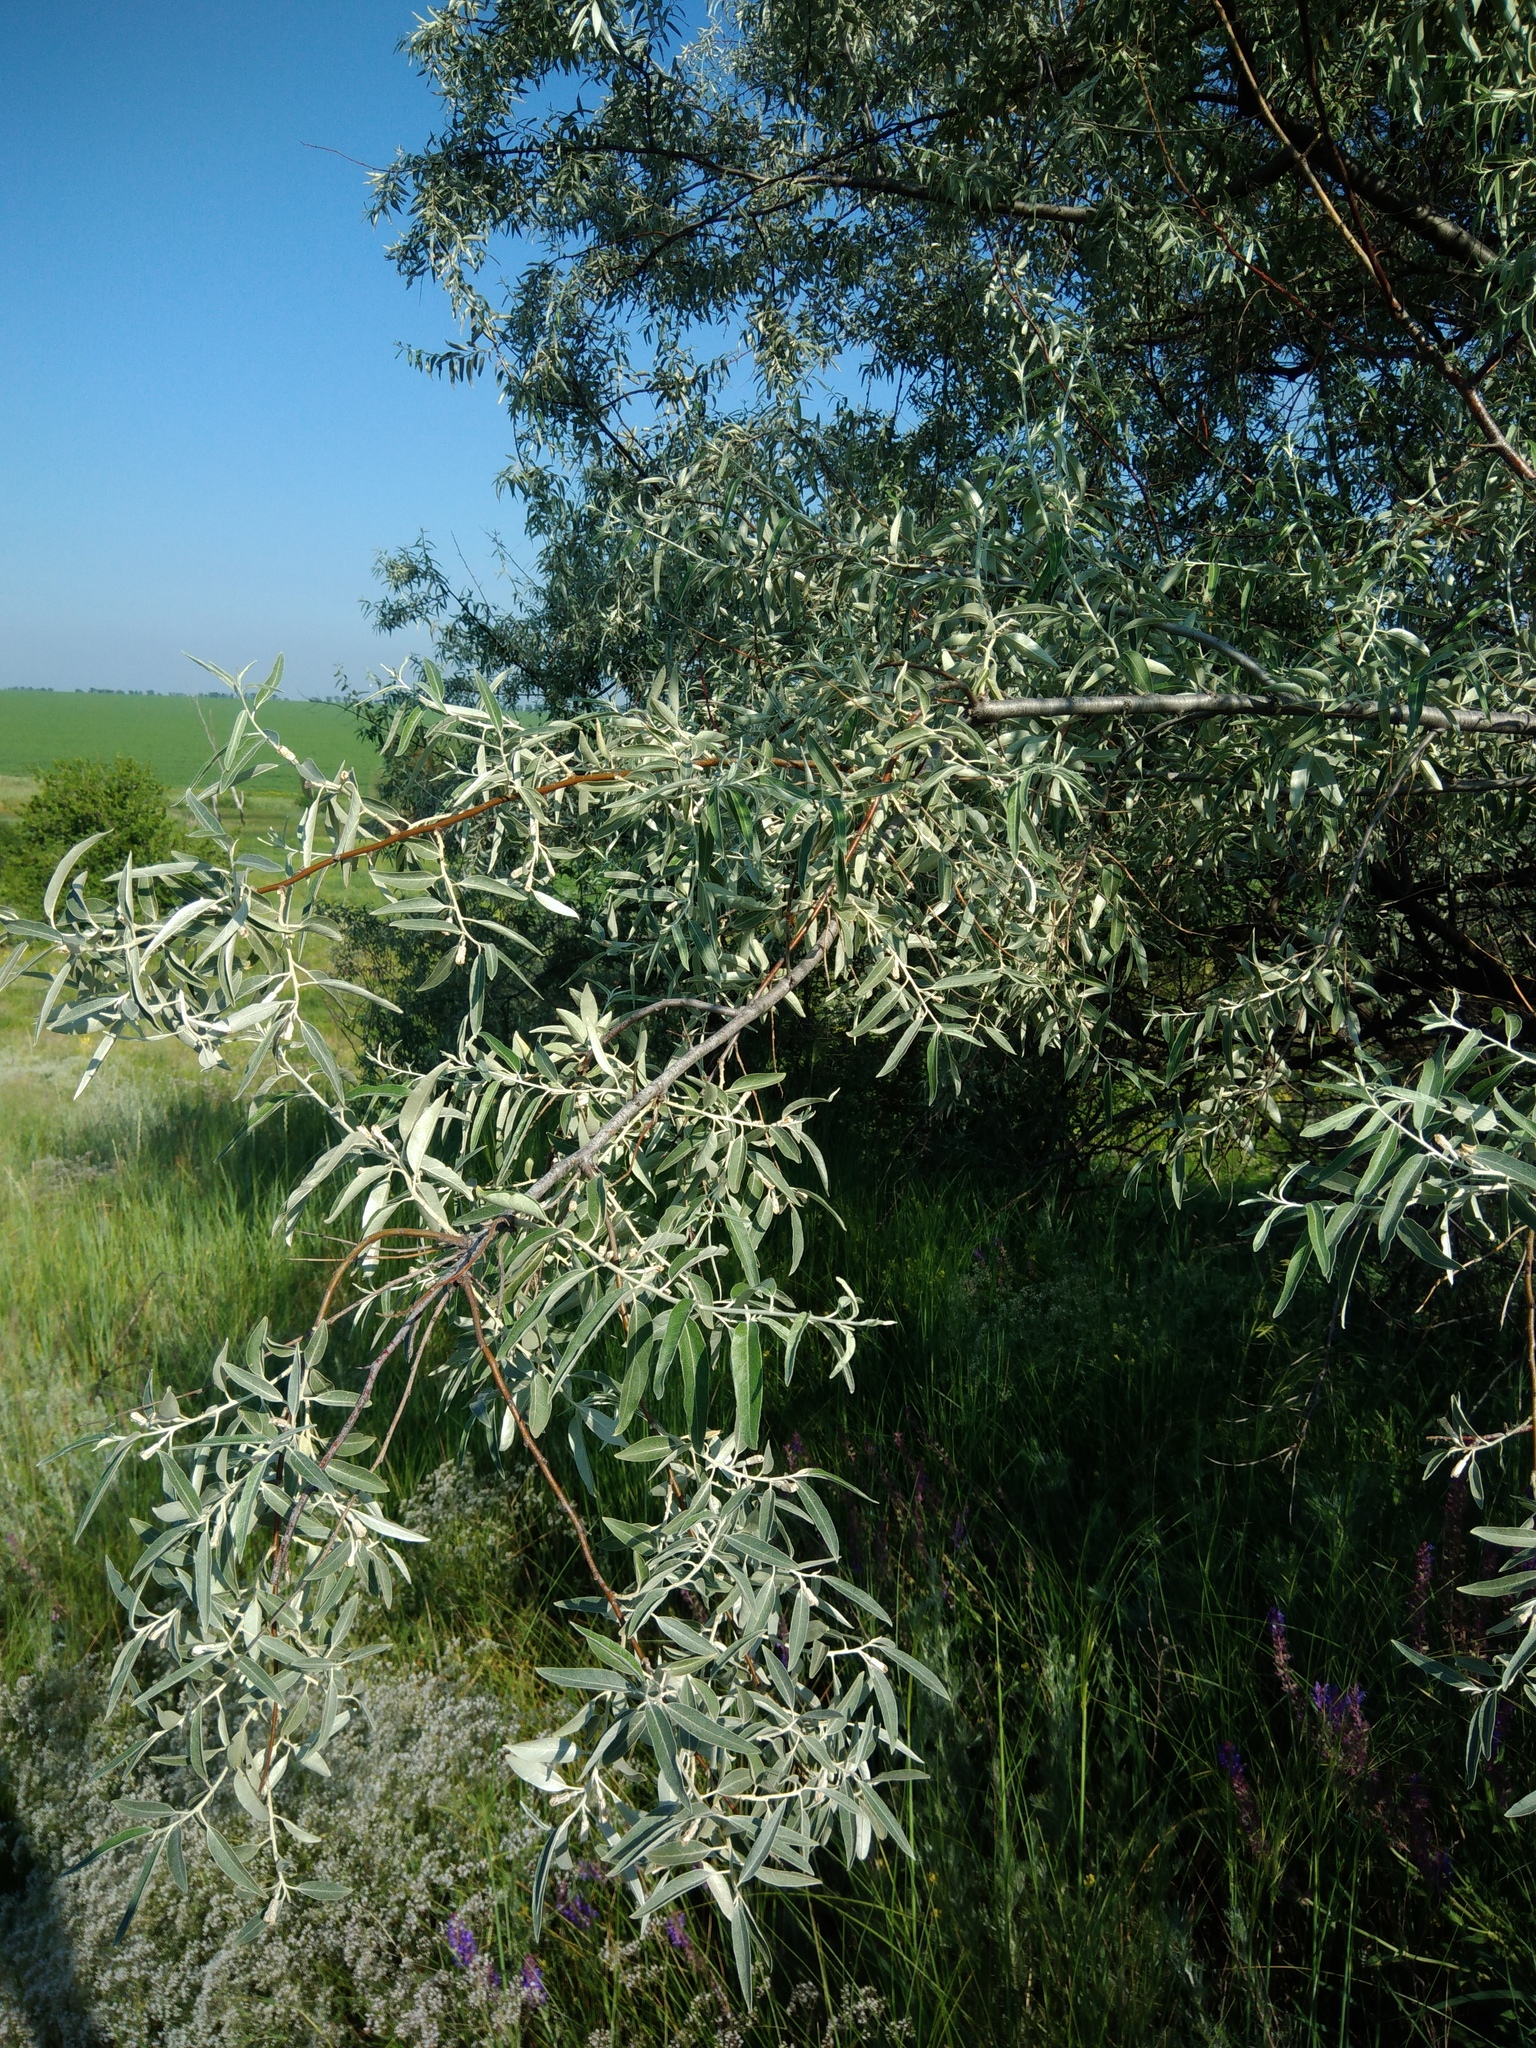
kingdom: Plantae
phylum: Tracheophyta
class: Magnoliopsida
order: Rosales
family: Elaeagnaceae
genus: Elaeagnus
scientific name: Elaeagnus angustifolia
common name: Russian olive
